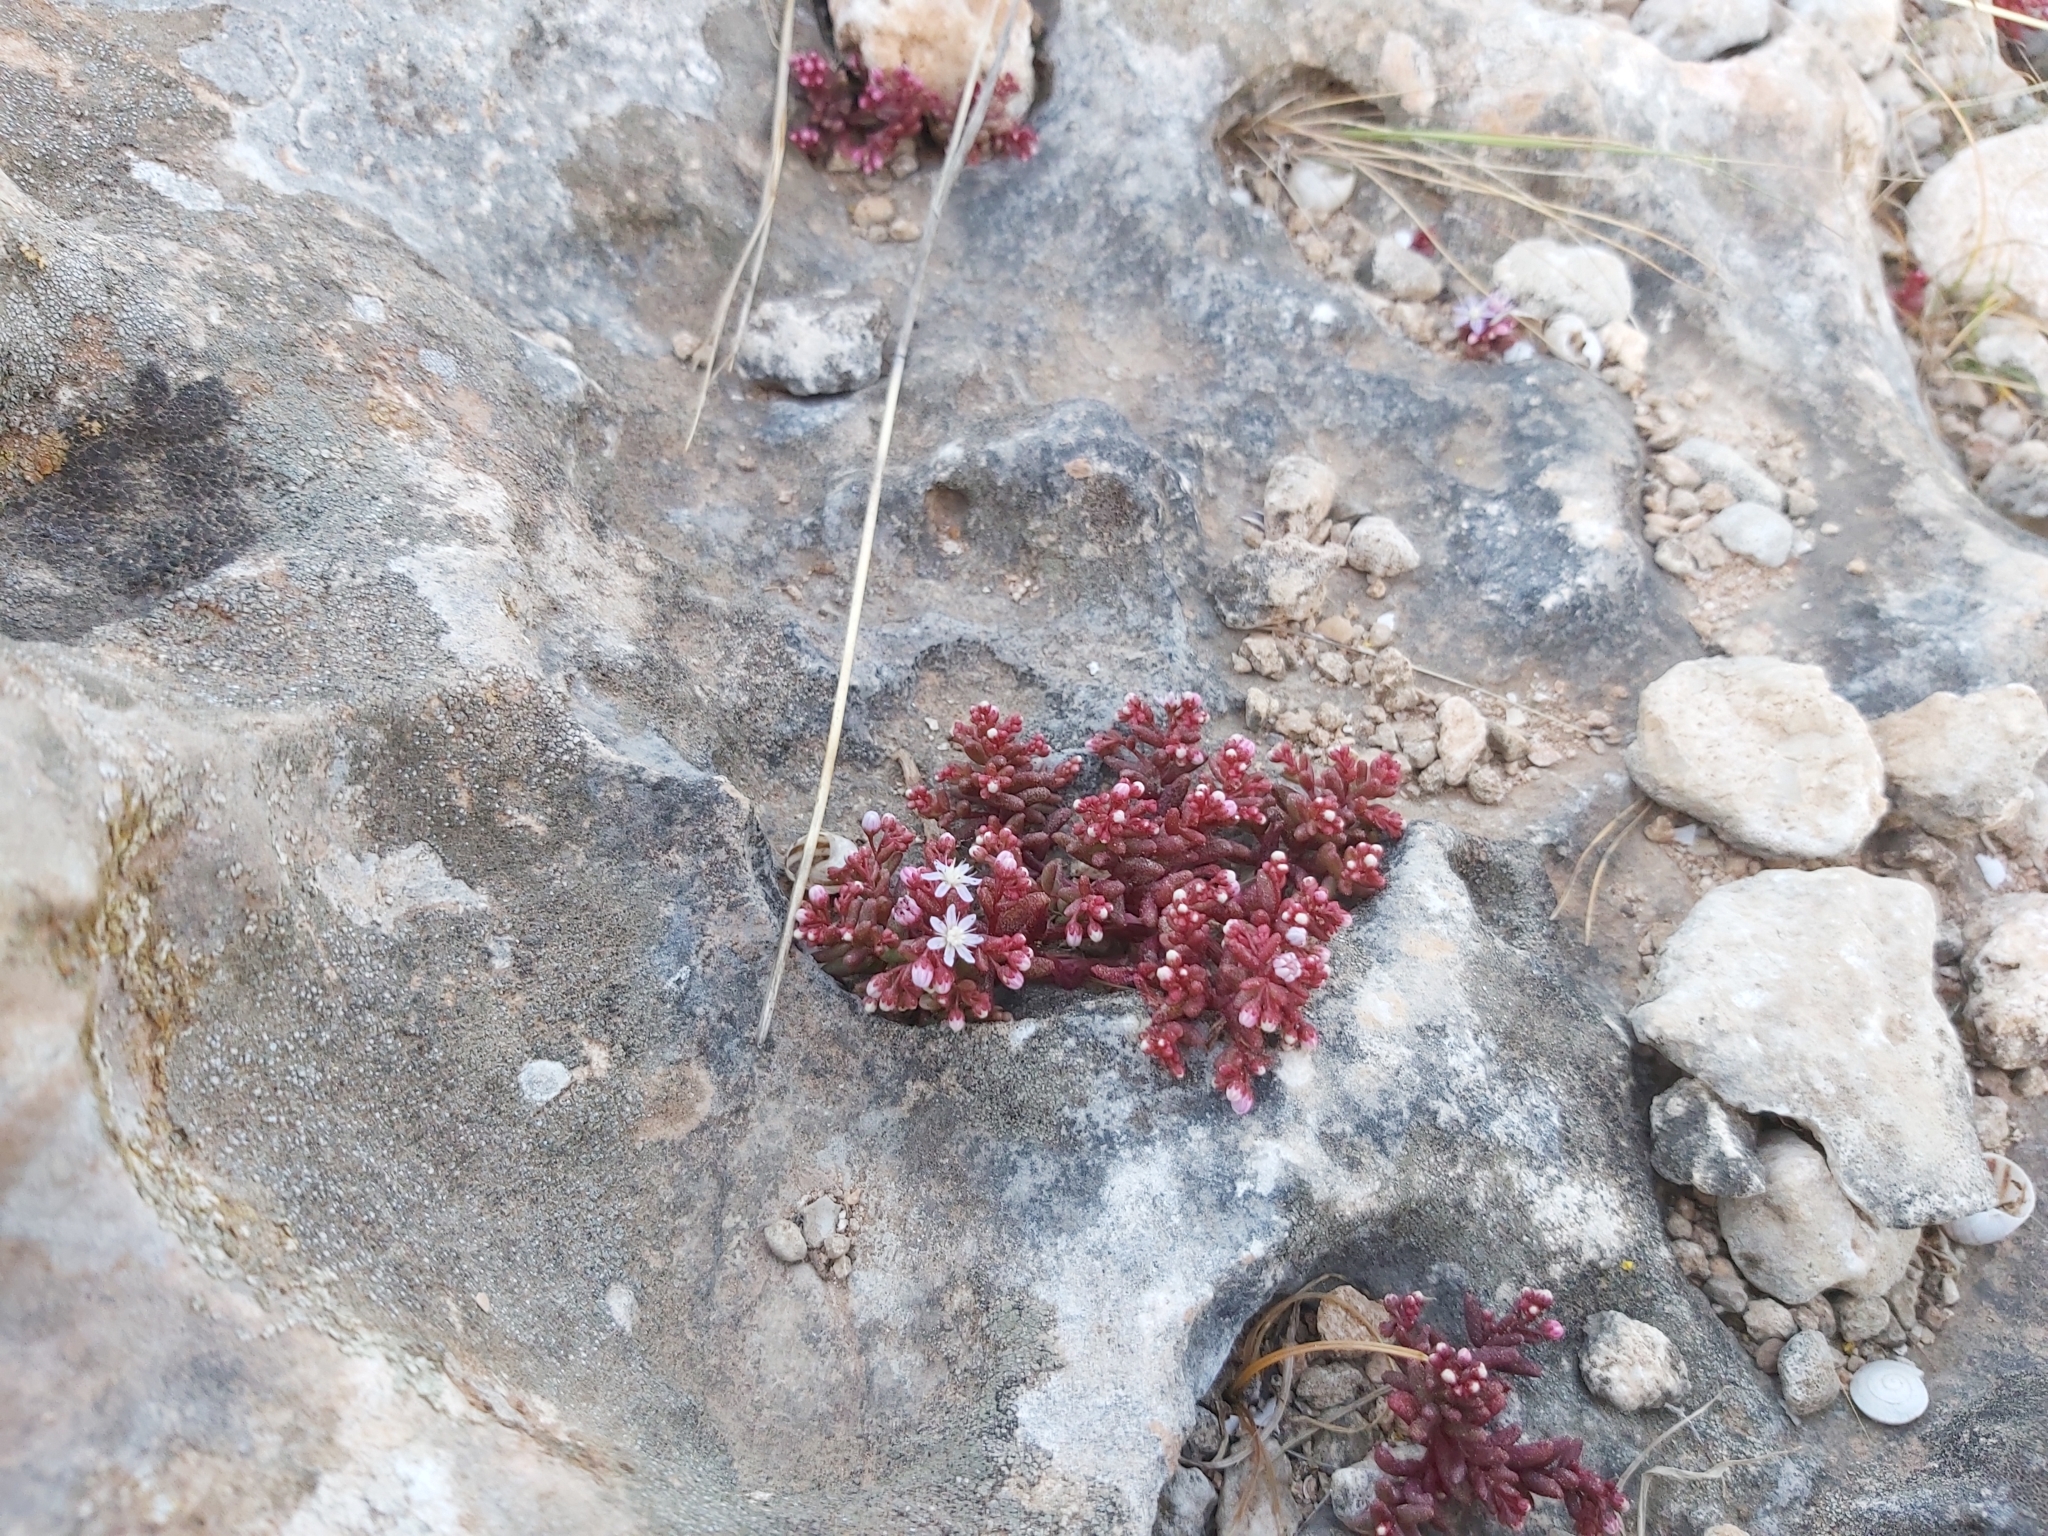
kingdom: Plantae
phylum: Tracheophyta
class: Magnoliopsida
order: Saxifragales
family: Crassulaceae
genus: Sedum
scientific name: Sedum caeruleum
